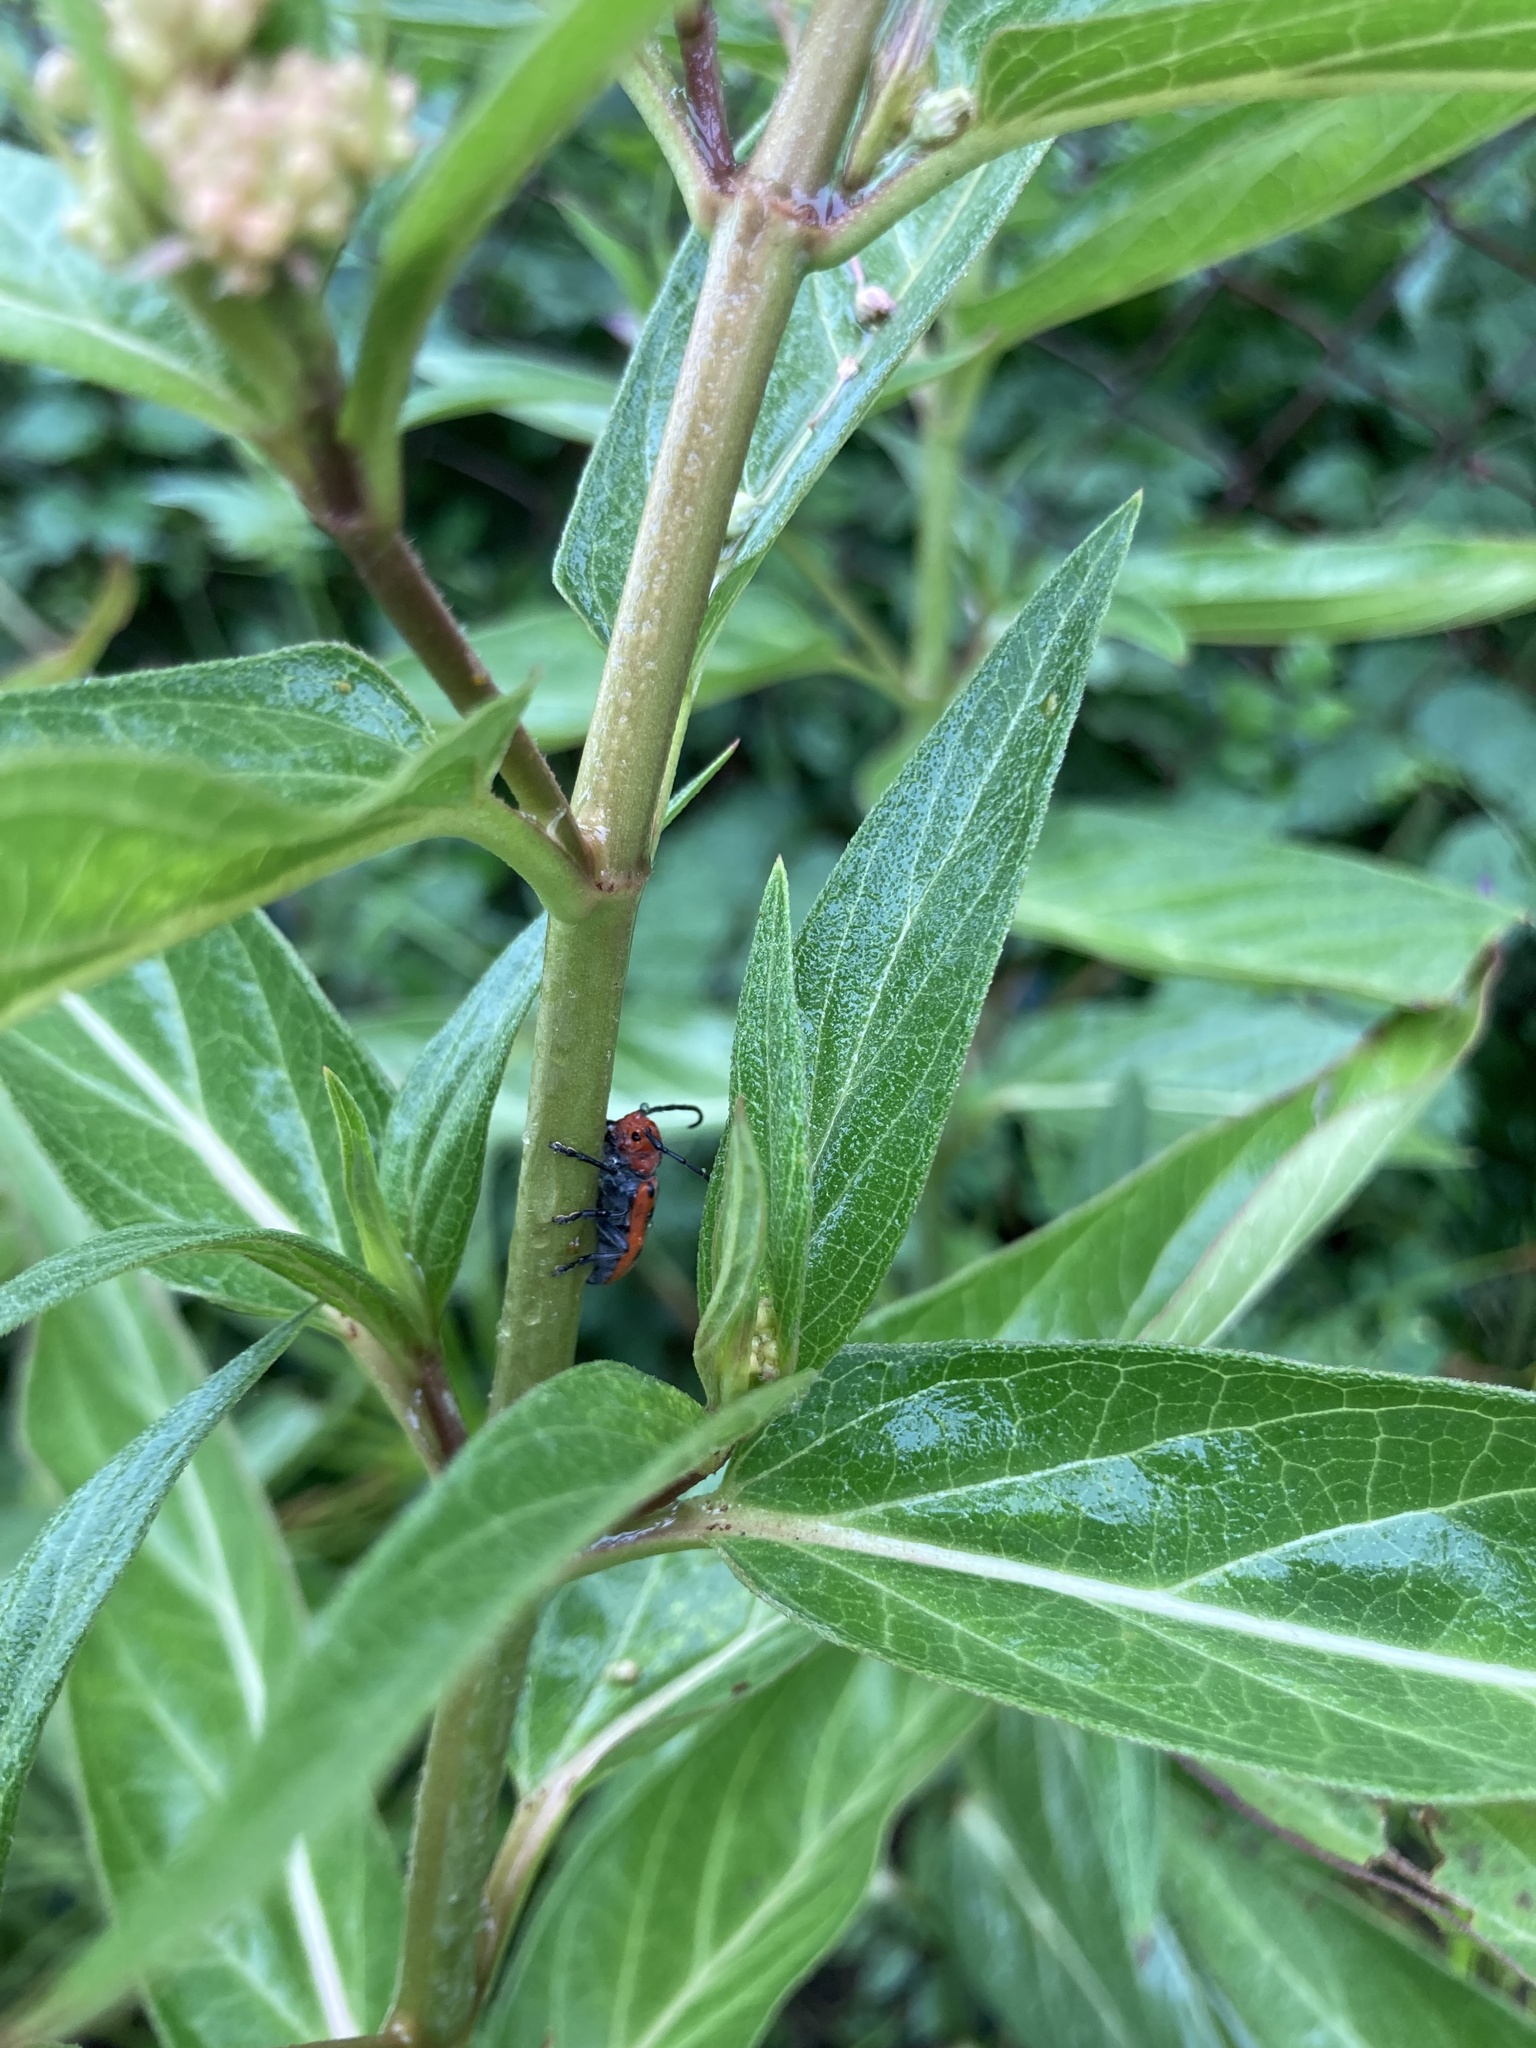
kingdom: Animalia
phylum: Arthropoda
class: Insecta
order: Coleoptera
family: Cerambycidae
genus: Tetraopes
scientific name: Tetraopes tetrophthalmus
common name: Red milkweed beetle
